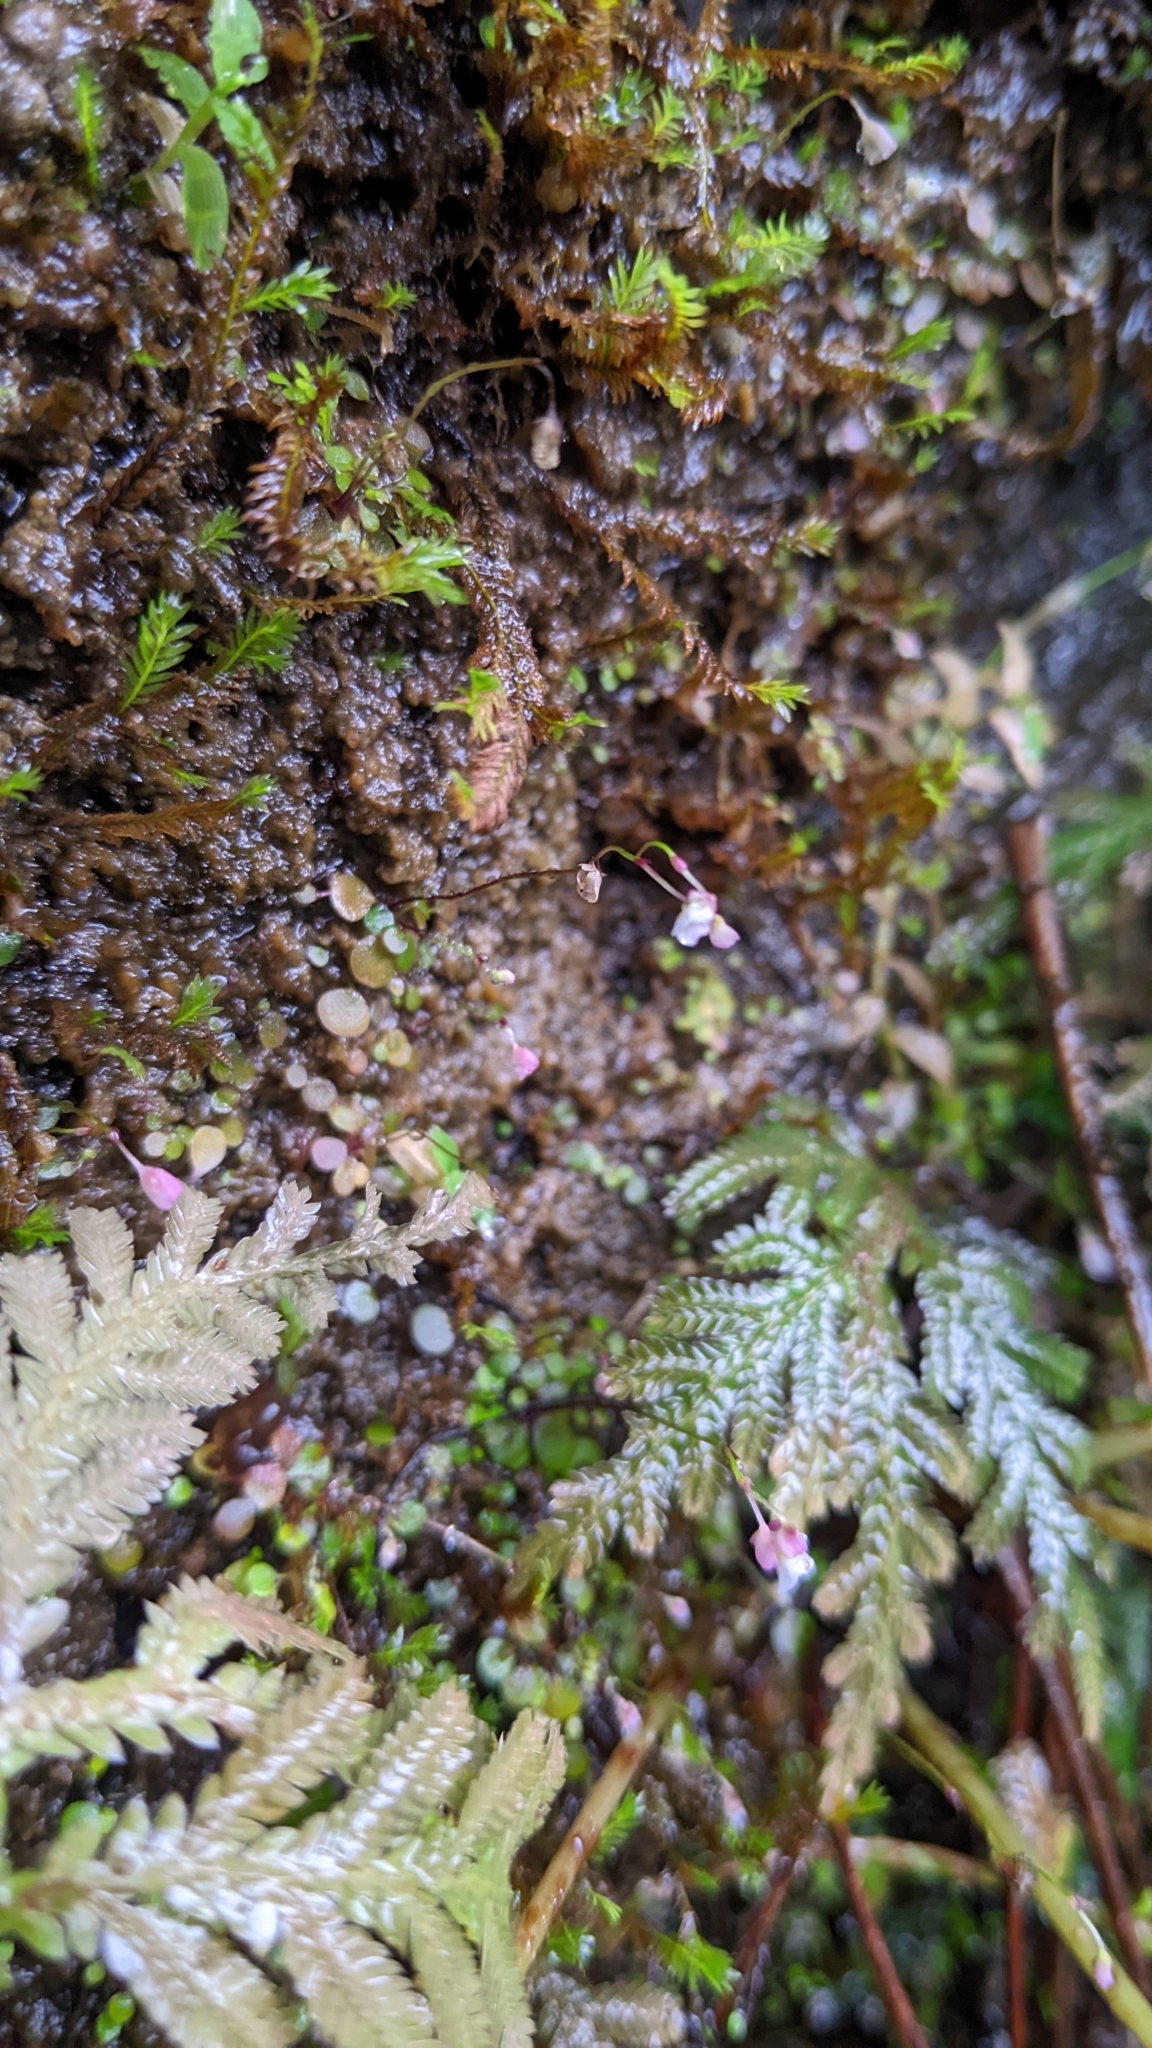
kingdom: Plantae
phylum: Tracheophyta
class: Magnoliopsida
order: Lamiales
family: Lentibulariaceae
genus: Utricularia
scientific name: Utricularia striatula
